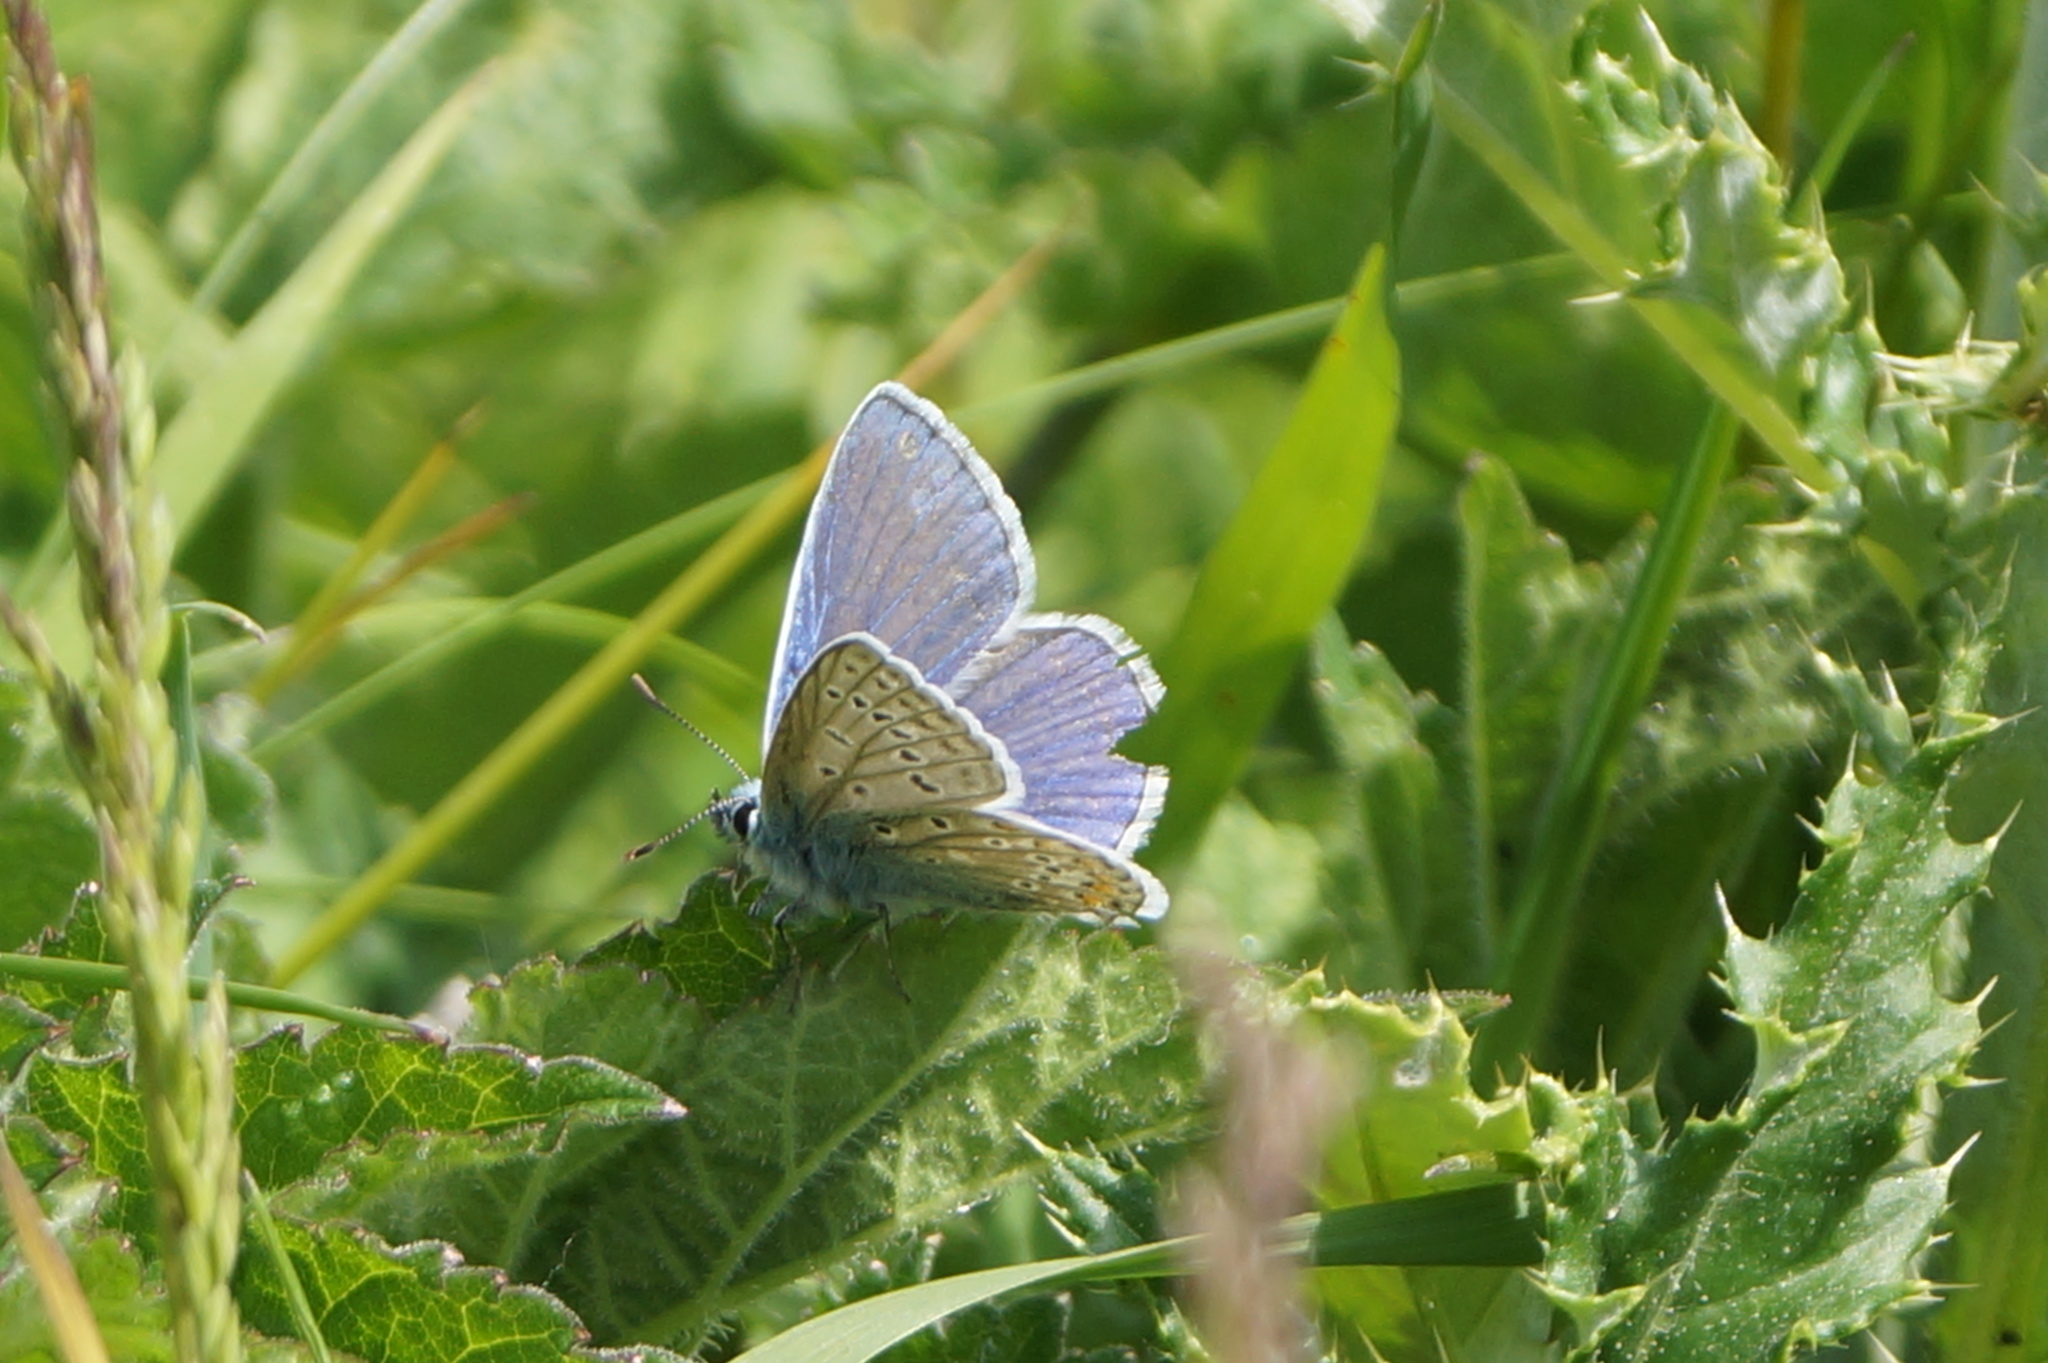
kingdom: Animalia
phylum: Arthropoda
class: Insecta
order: Lepidoptera
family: Lycaenidae
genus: Polyommatus
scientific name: Polyommatus icarus
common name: Common blue
